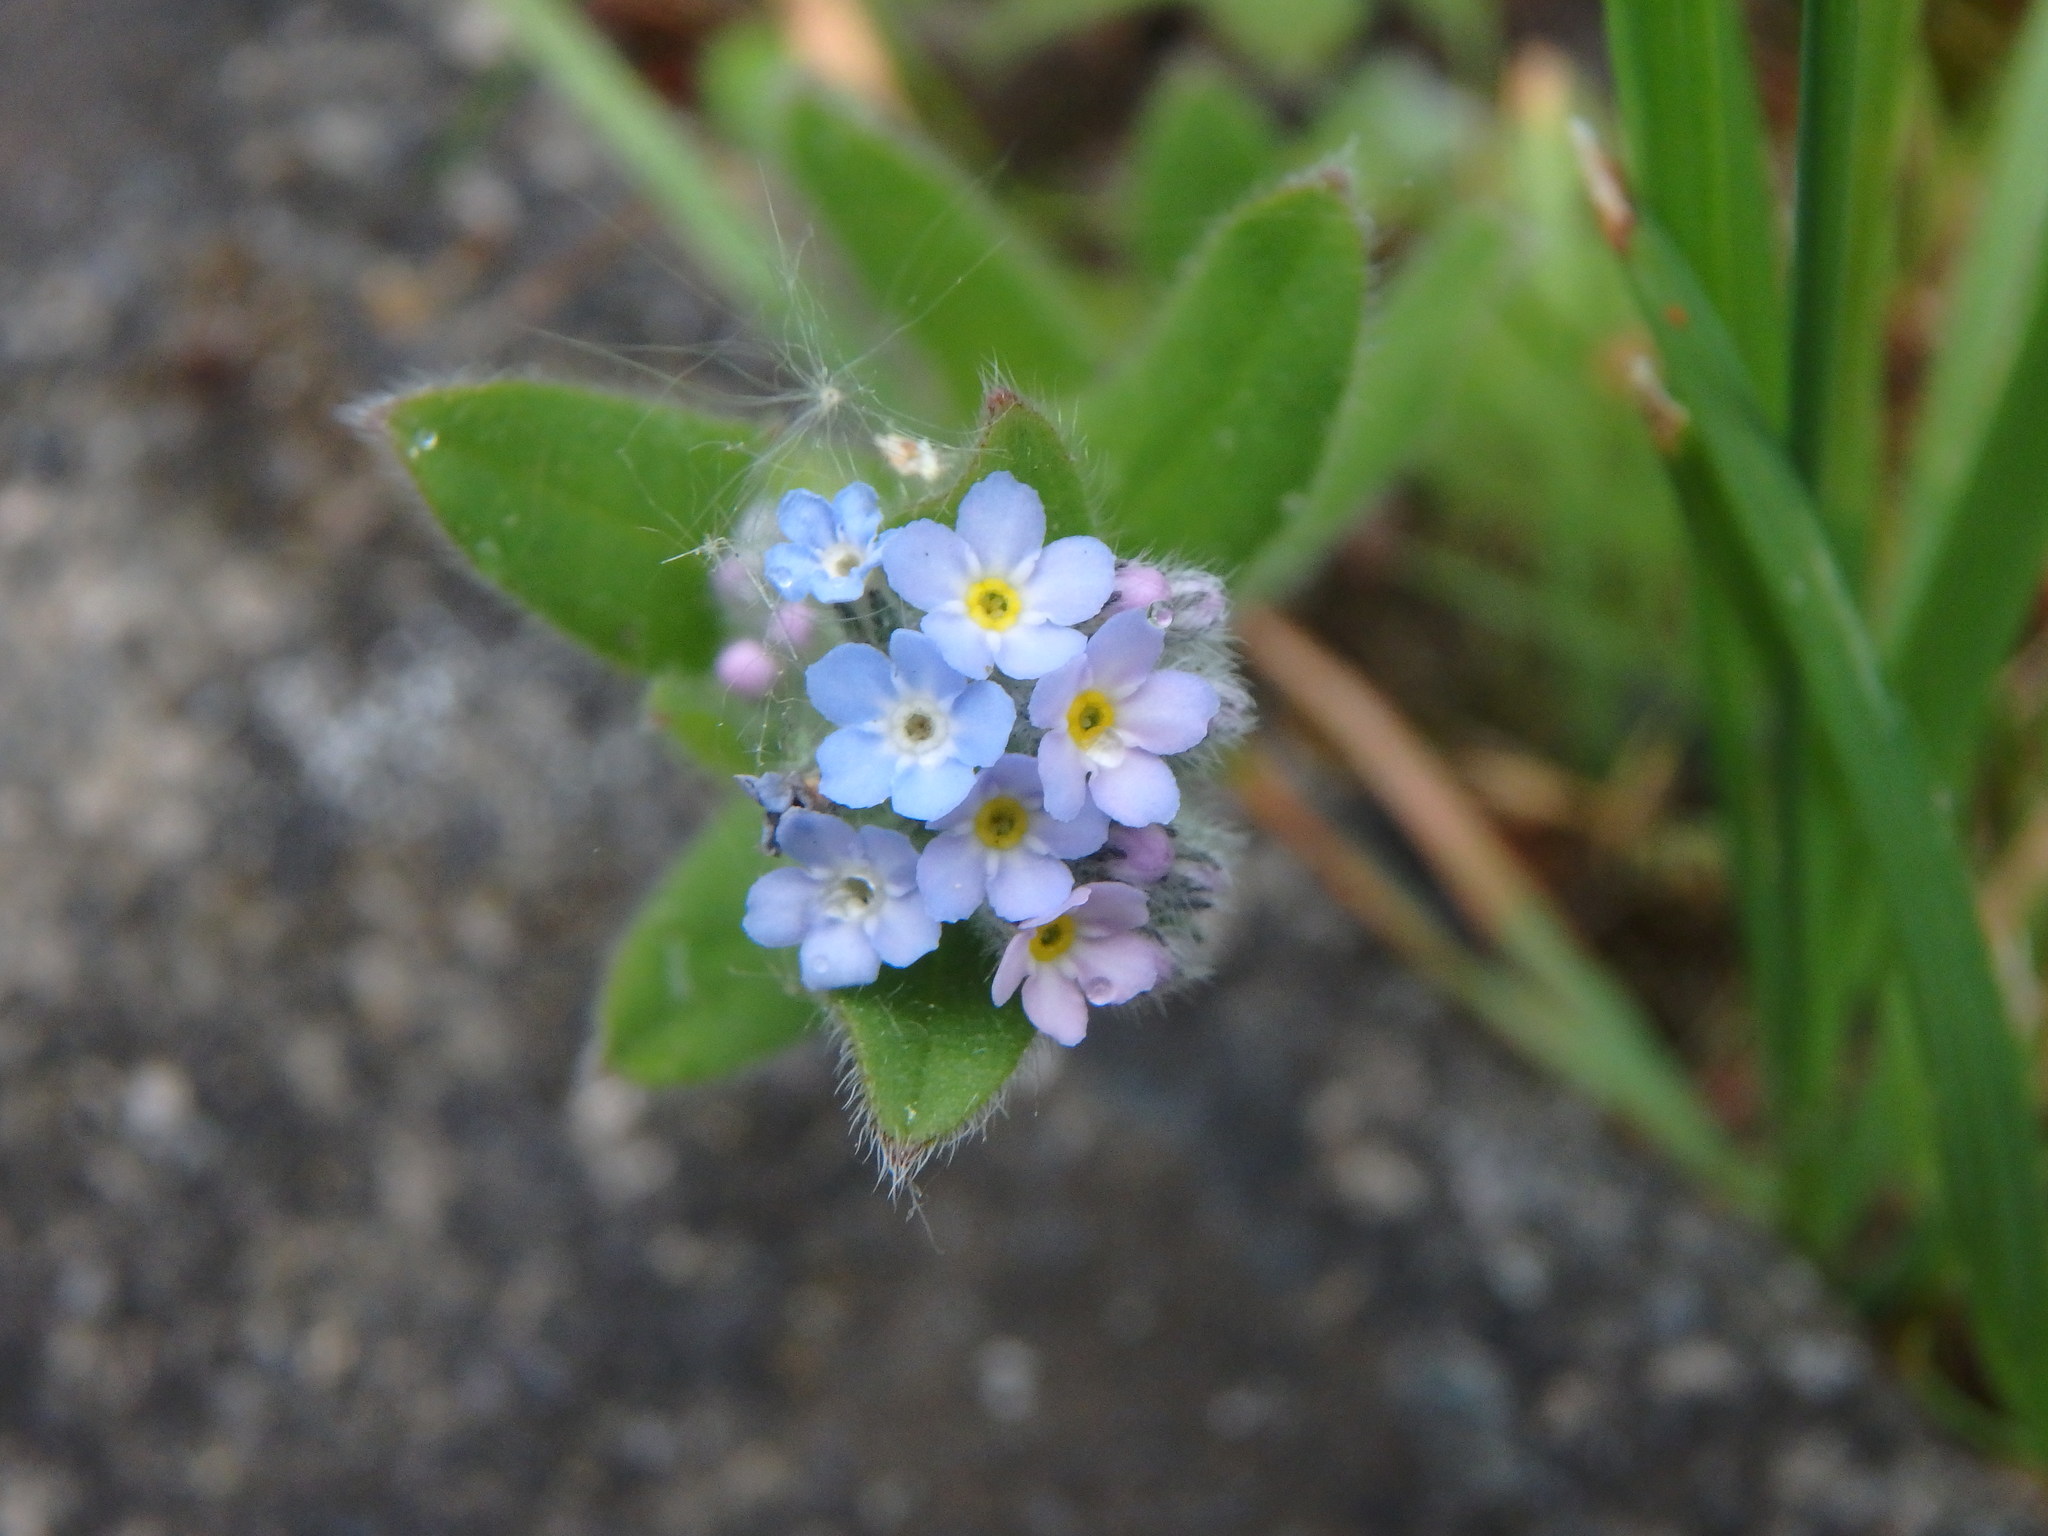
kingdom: Plantae
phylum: Tracheophyta
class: Magnoliopsida
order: Boraginales
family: Boraginaceae
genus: Myosotis
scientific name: Myosotis arvensis
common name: Field forget-me-not
